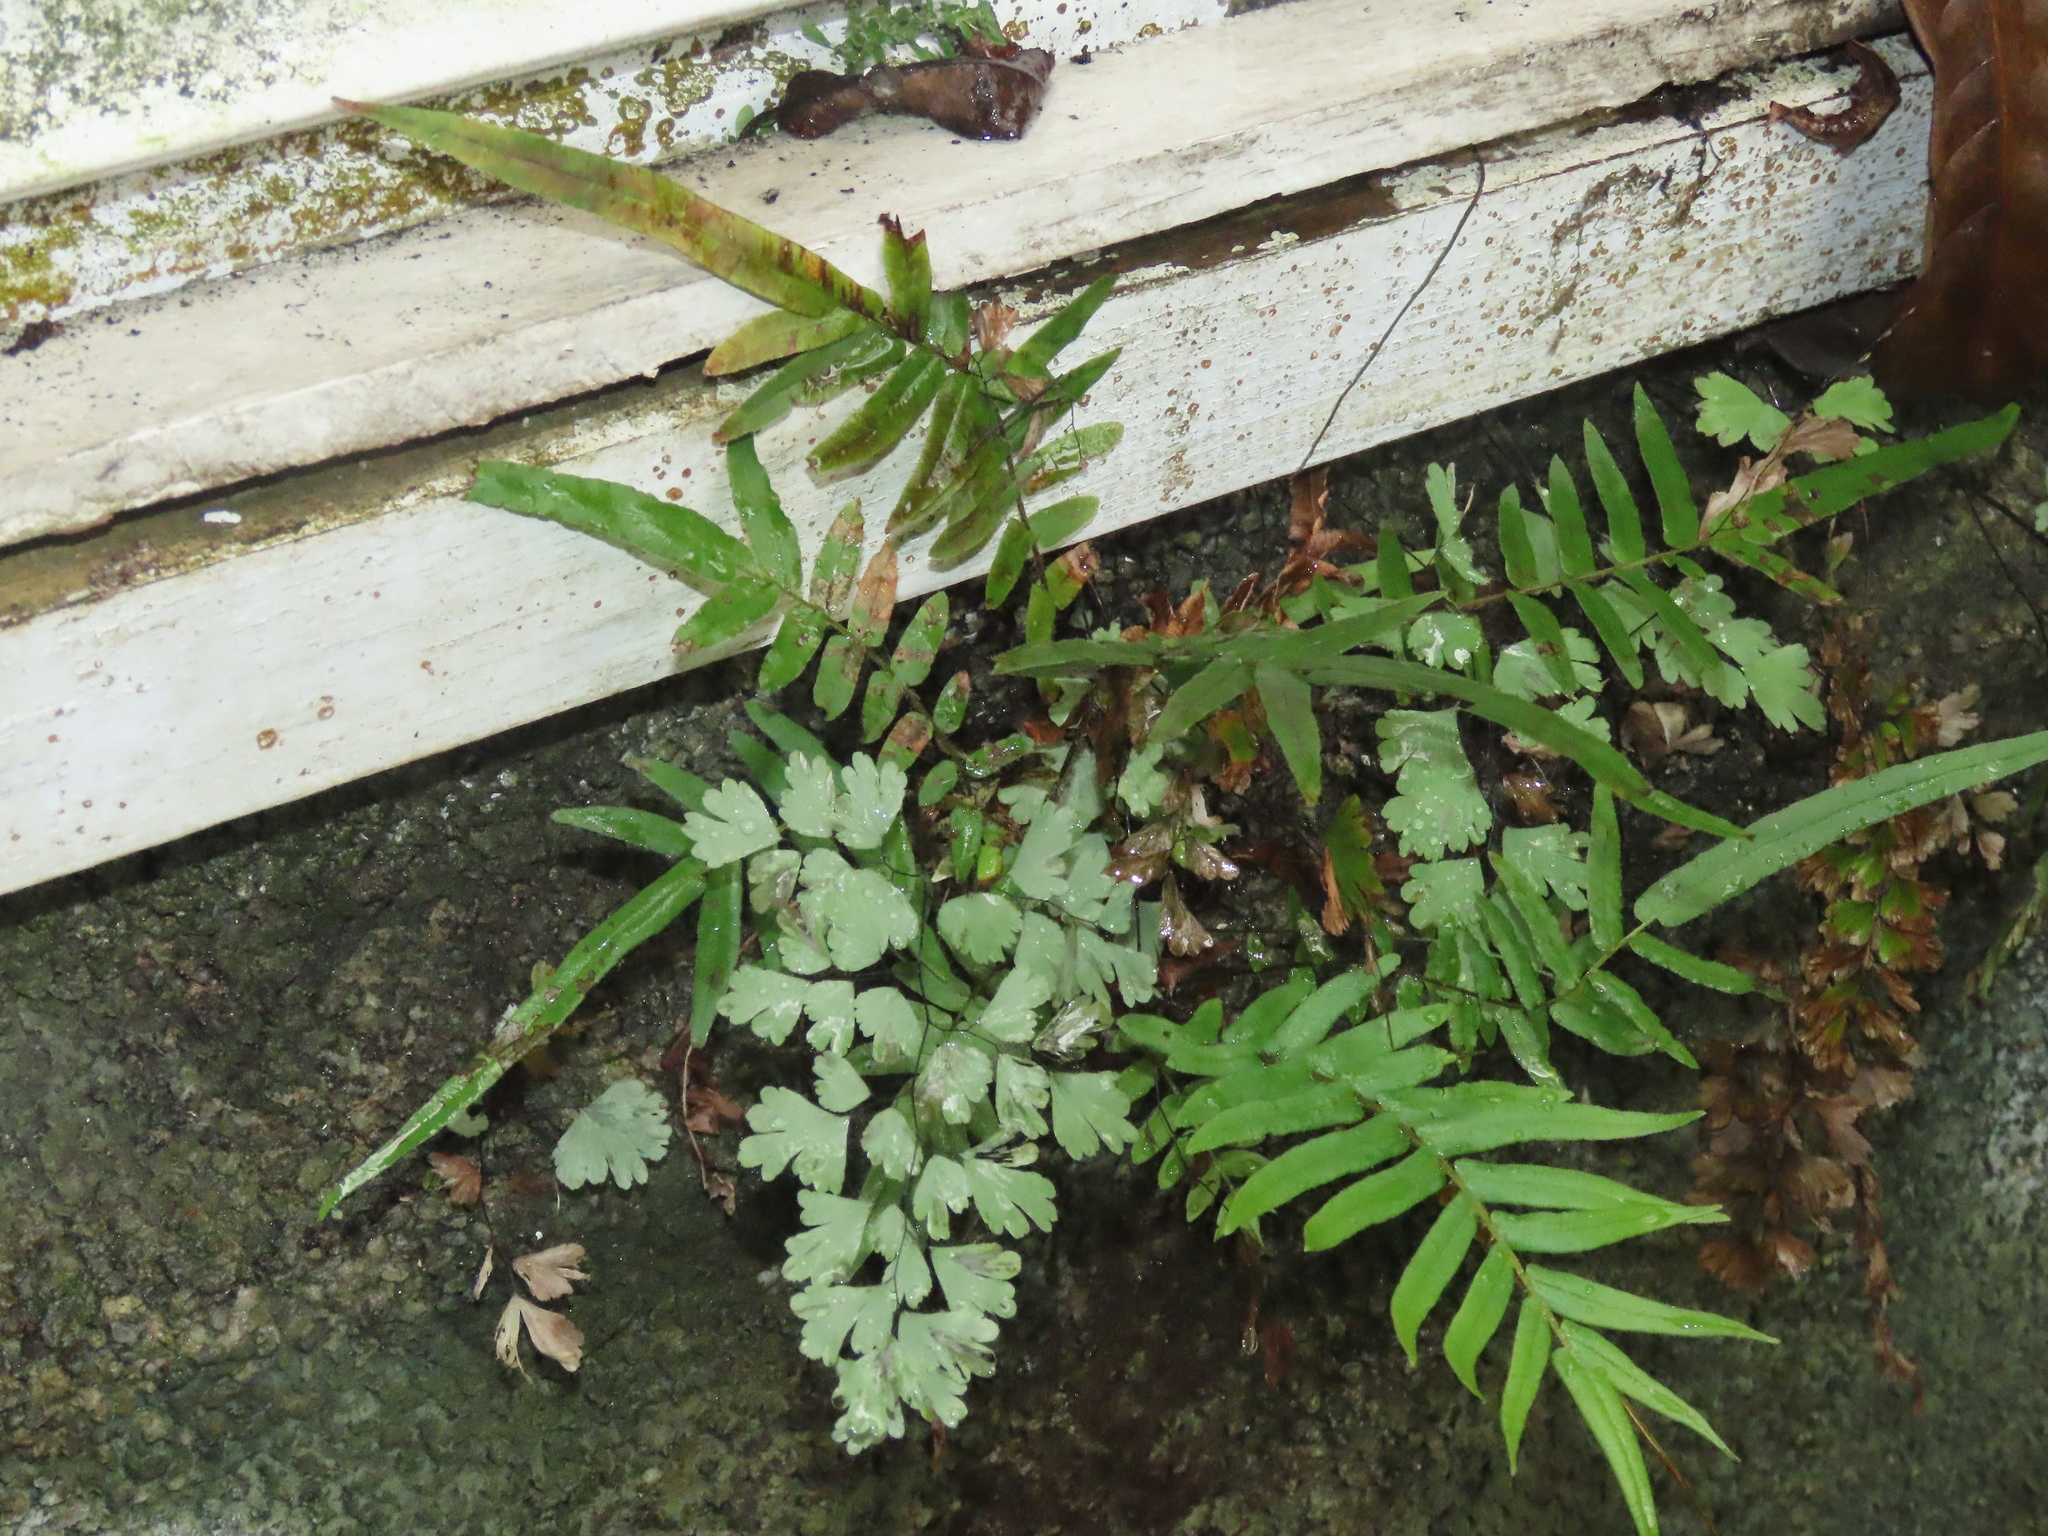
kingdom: Plantae
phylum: Tracheophyta
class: Polypodiopsida
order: Polypodiales
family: Pteridaceae
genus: Pteris
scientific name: Pteris vittata
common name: Ladder brake
